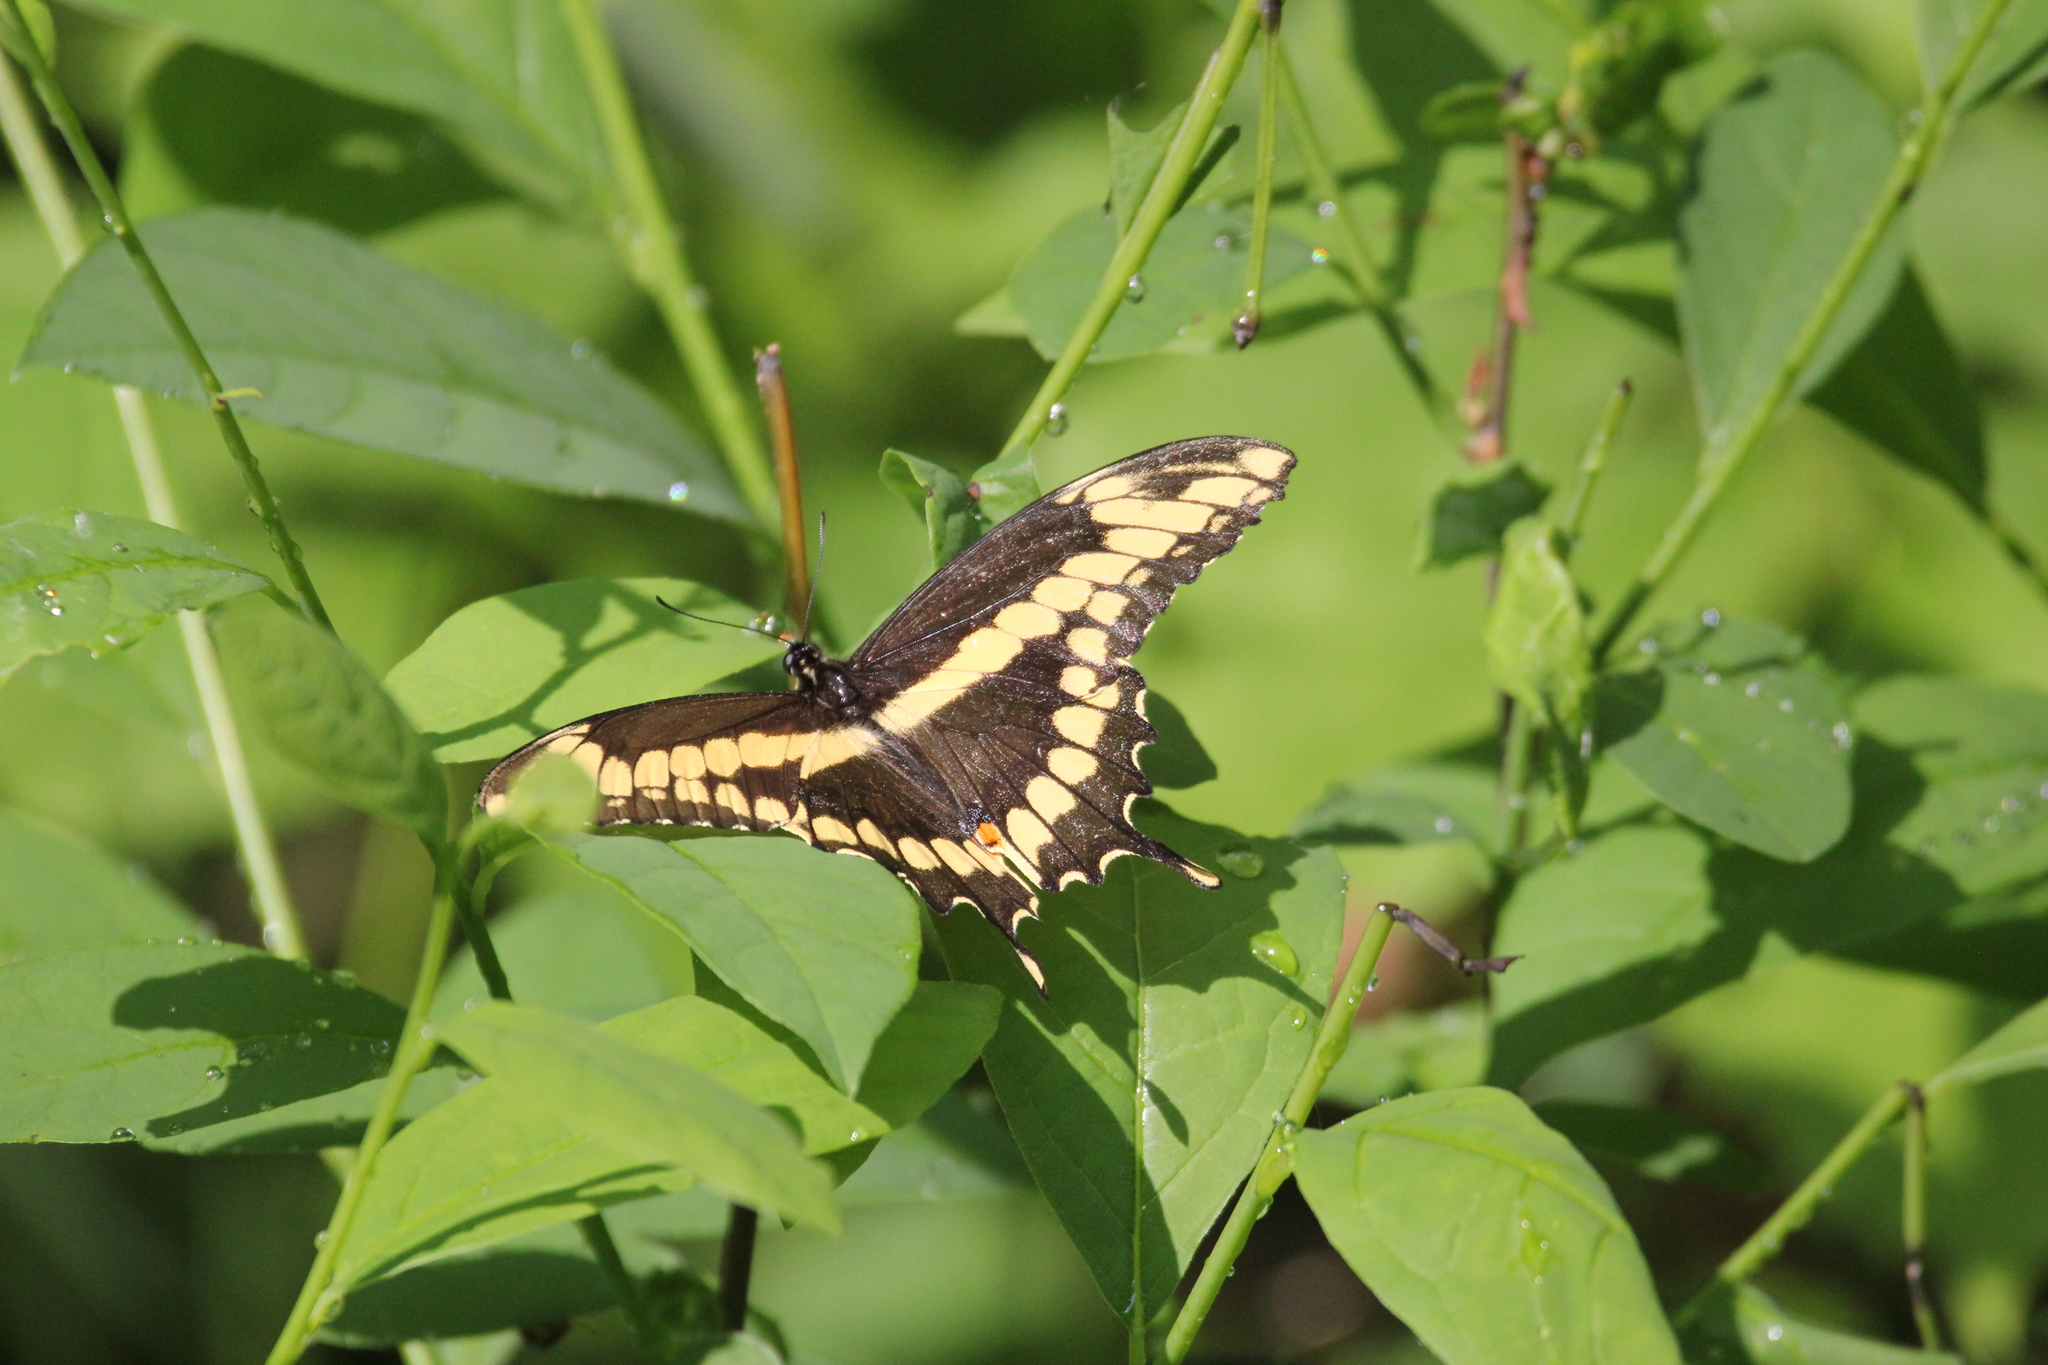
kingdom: Animalia
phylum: Arthropoda
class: Insecta
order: Lepidoptera
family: Papilionidae
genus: Papilio
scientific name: Papilio cresphontes
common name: Giant swallowtail
